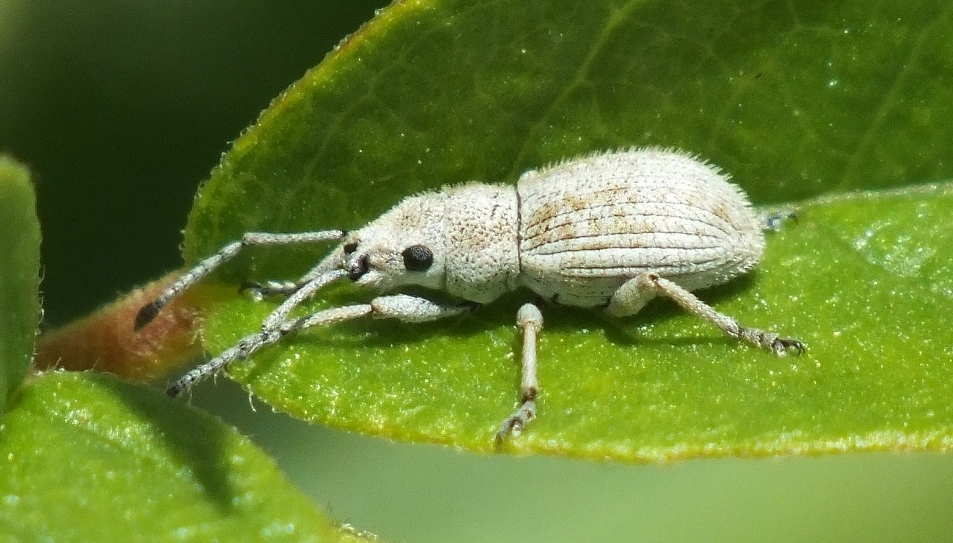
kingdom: Animalia
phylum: Arthropoda
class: Insecta
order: Coleoptera
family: Curculionidae
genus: Ptochus
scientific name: Ptochus porcellus
